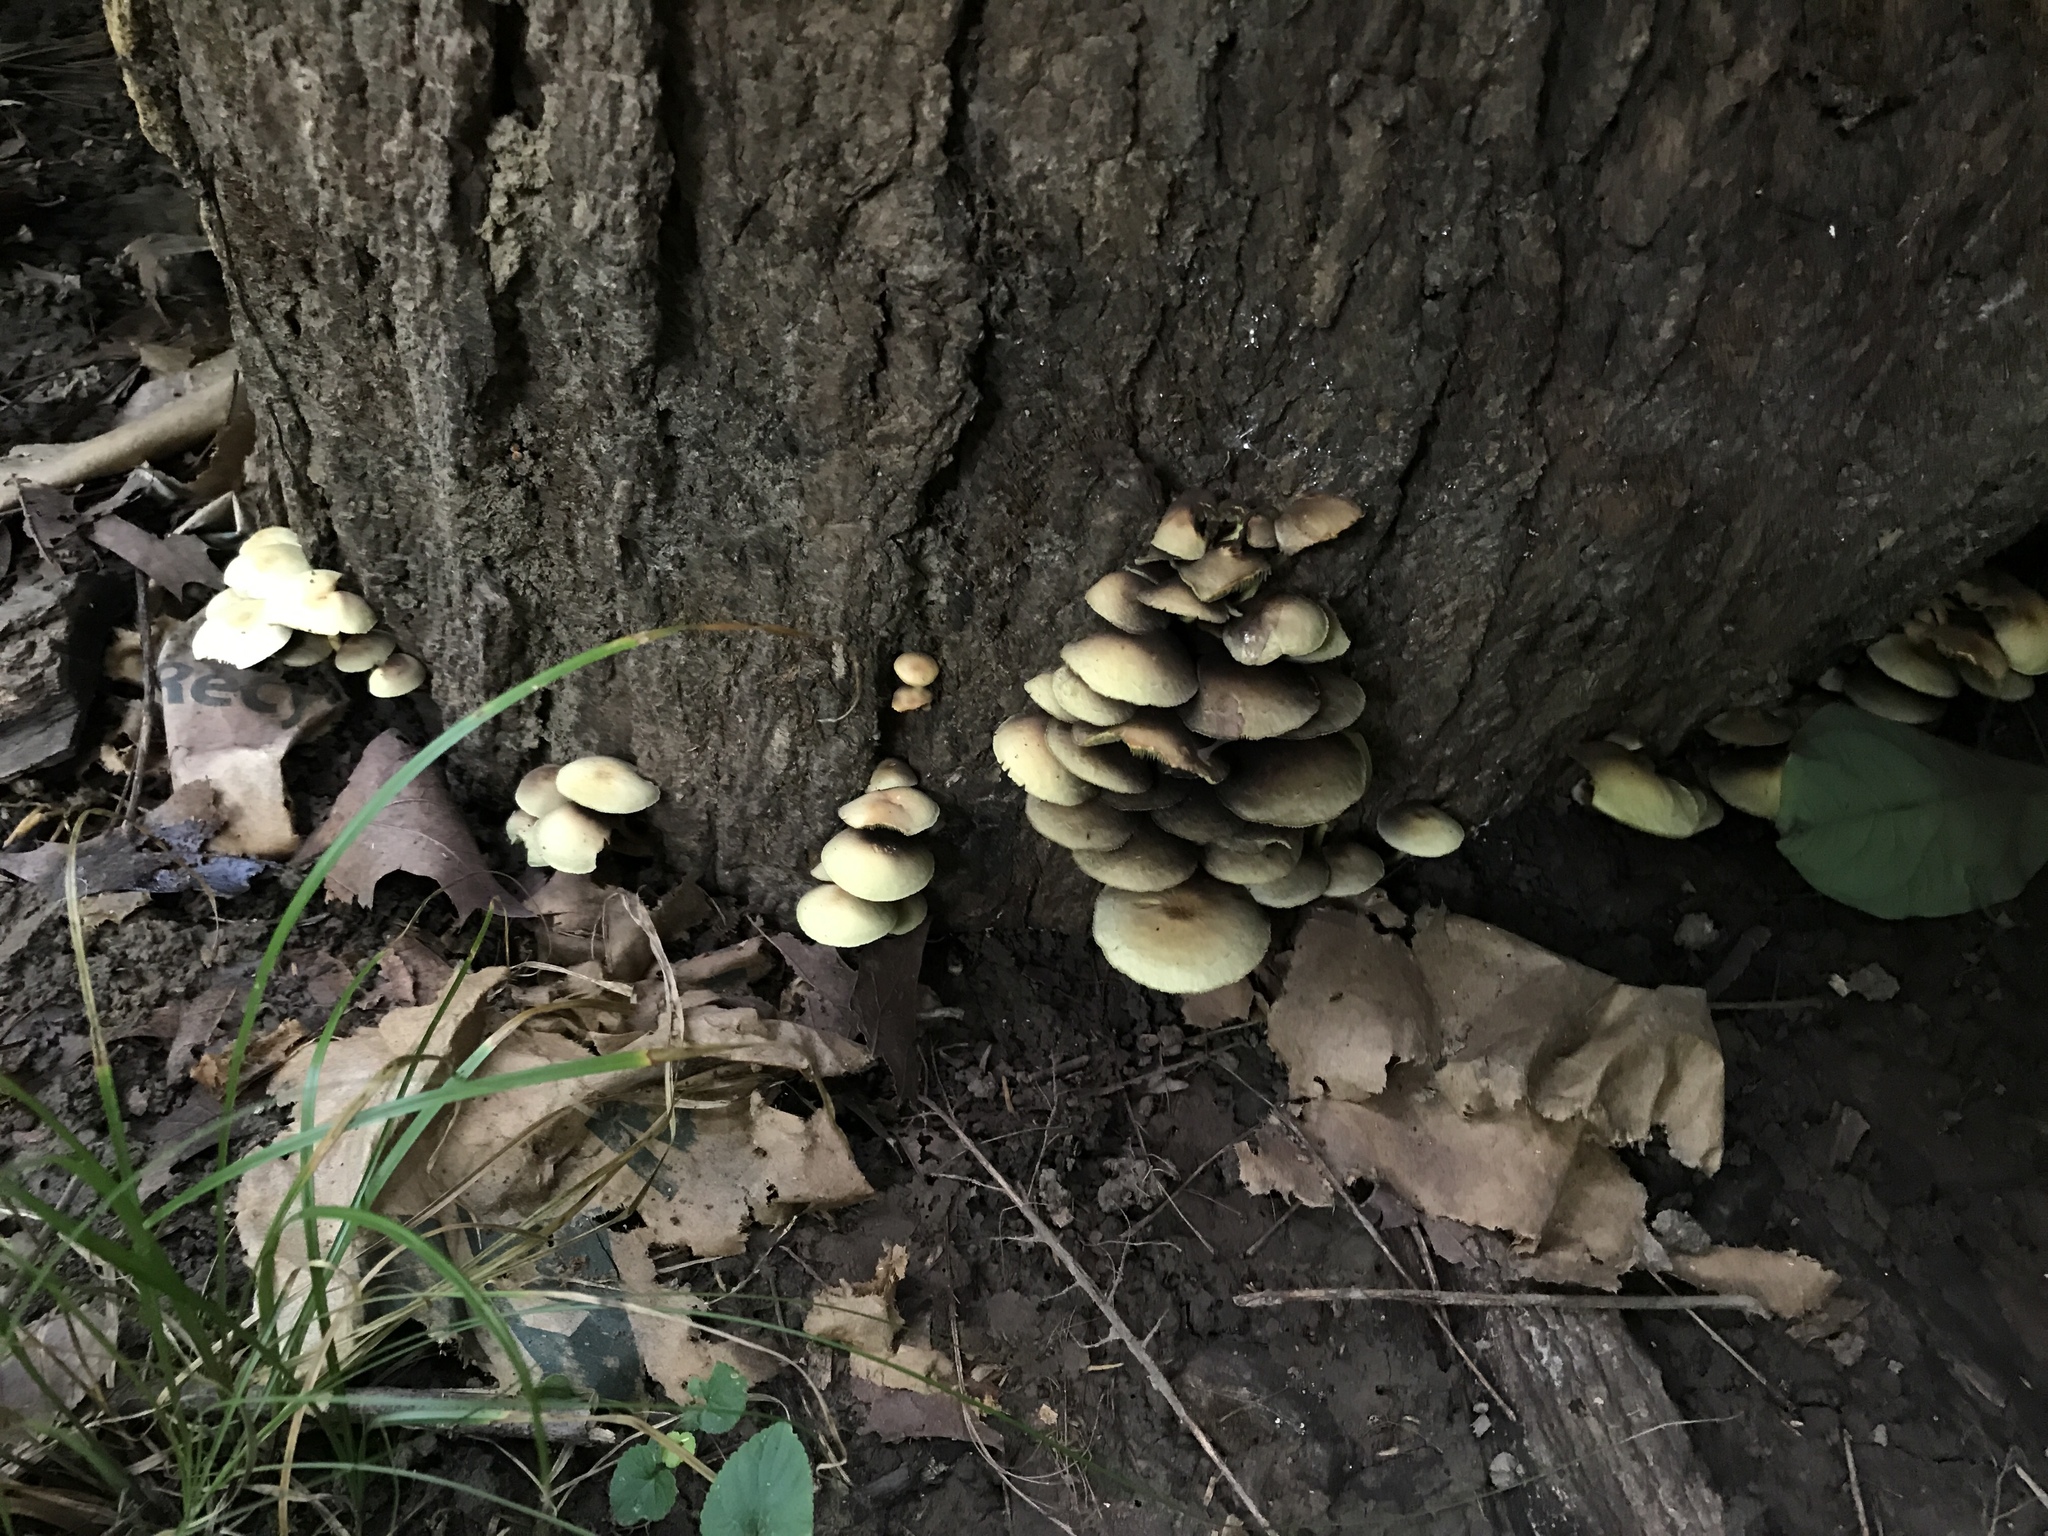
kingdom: Fungi
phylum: Basidiomycota
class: Agaricomycetes
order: Agaricales
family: Strophariaceae
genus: Hypholoma
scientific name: Hypholoma fasciculare
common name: Sulphur tuft
